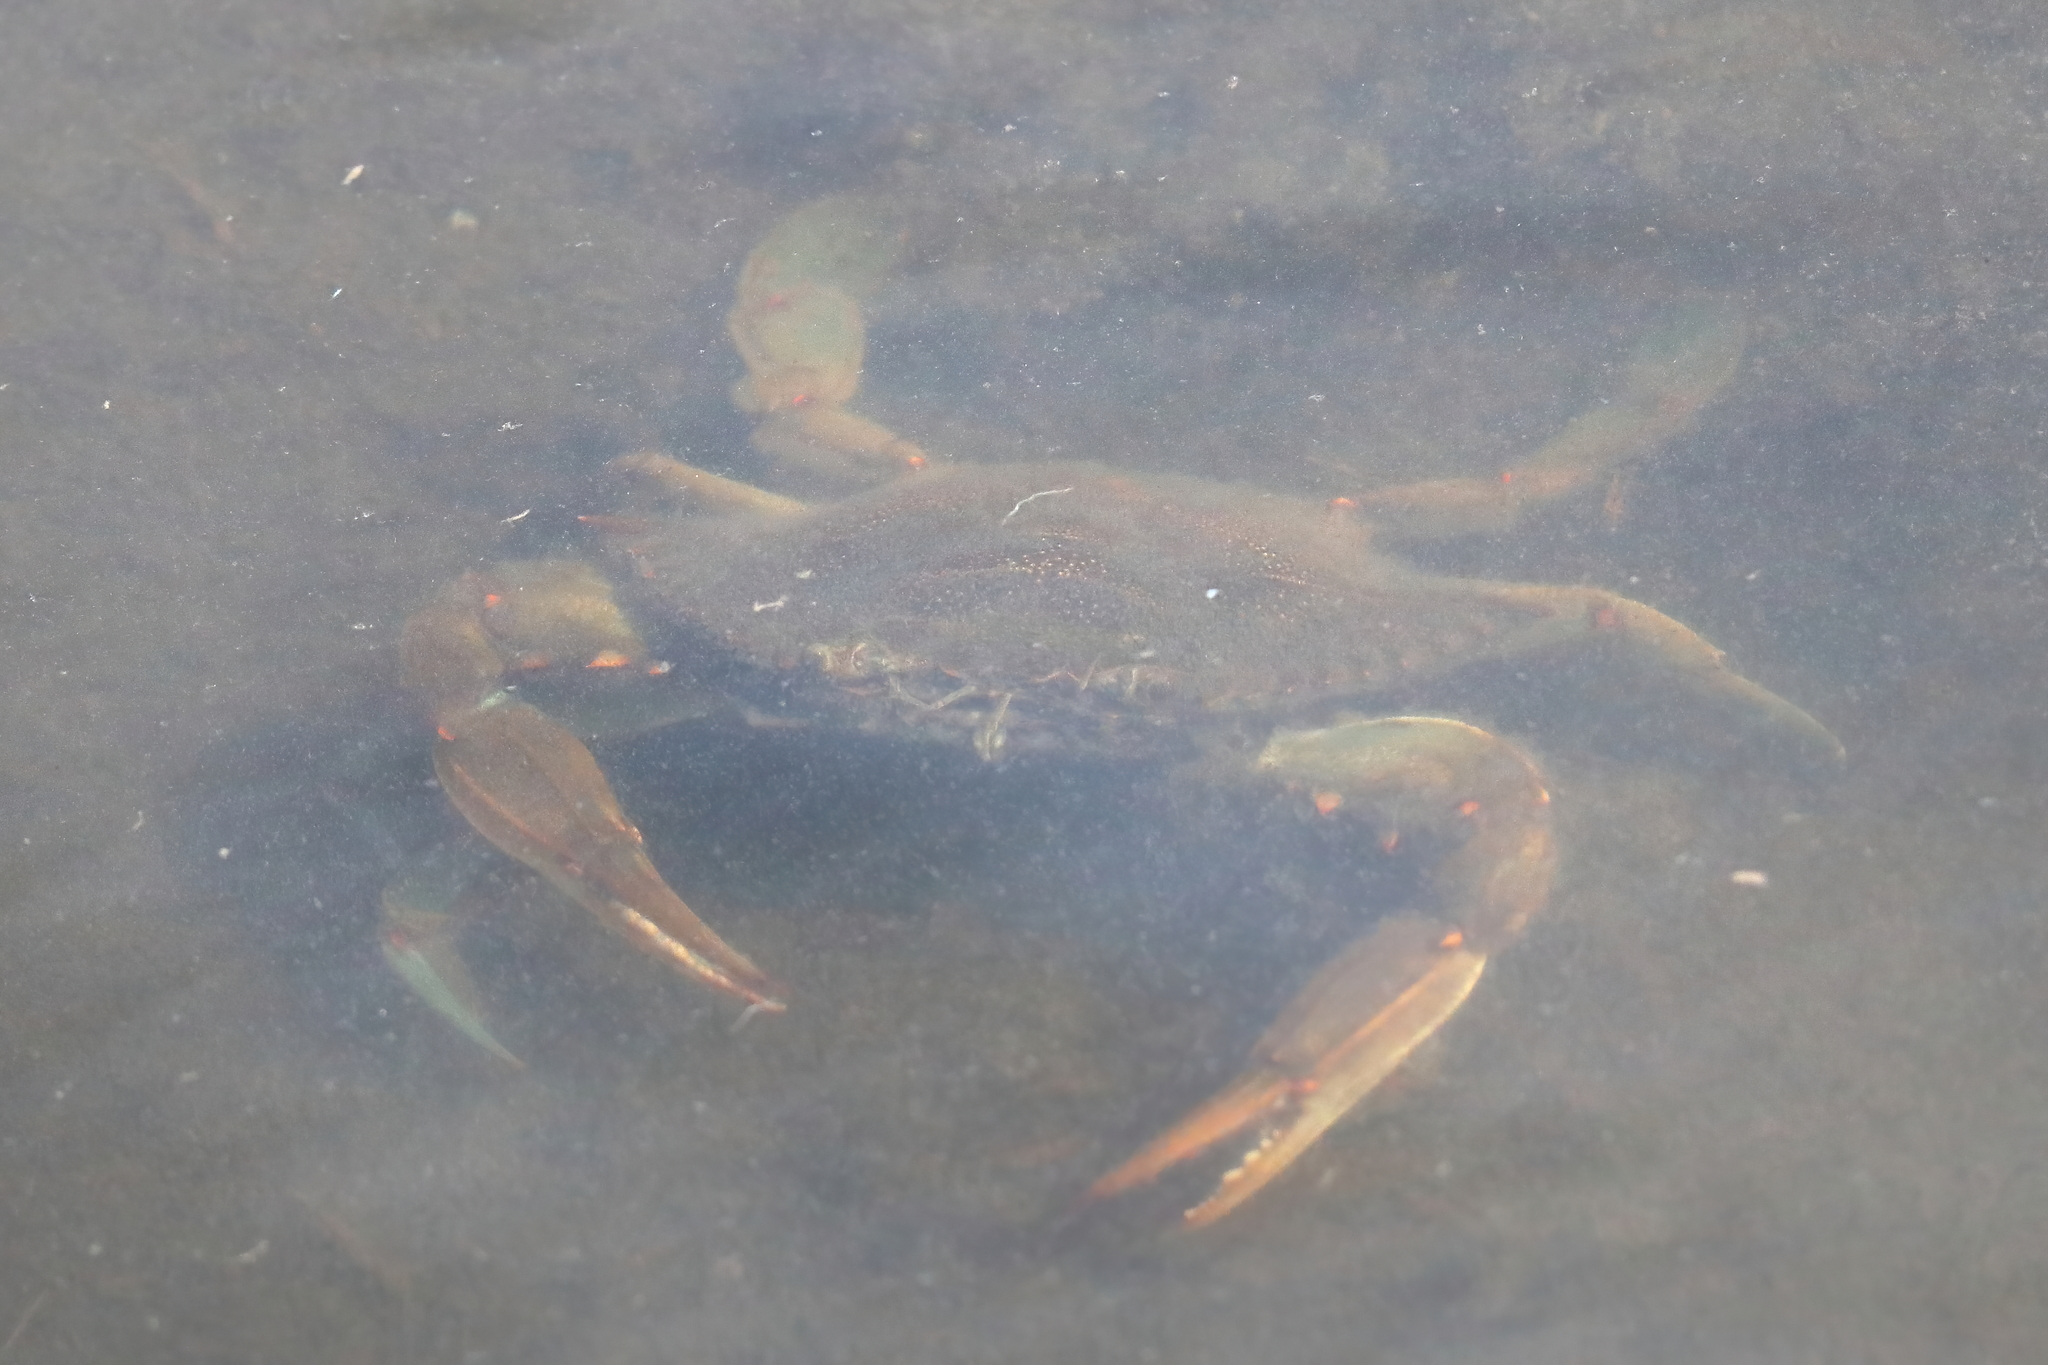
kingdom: Animalia
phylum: Arthropoda
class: Malacostraca
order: Decapoda
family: Portunidae
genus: Callinectes
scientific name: Callinectes sapidus
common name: Blue crab
